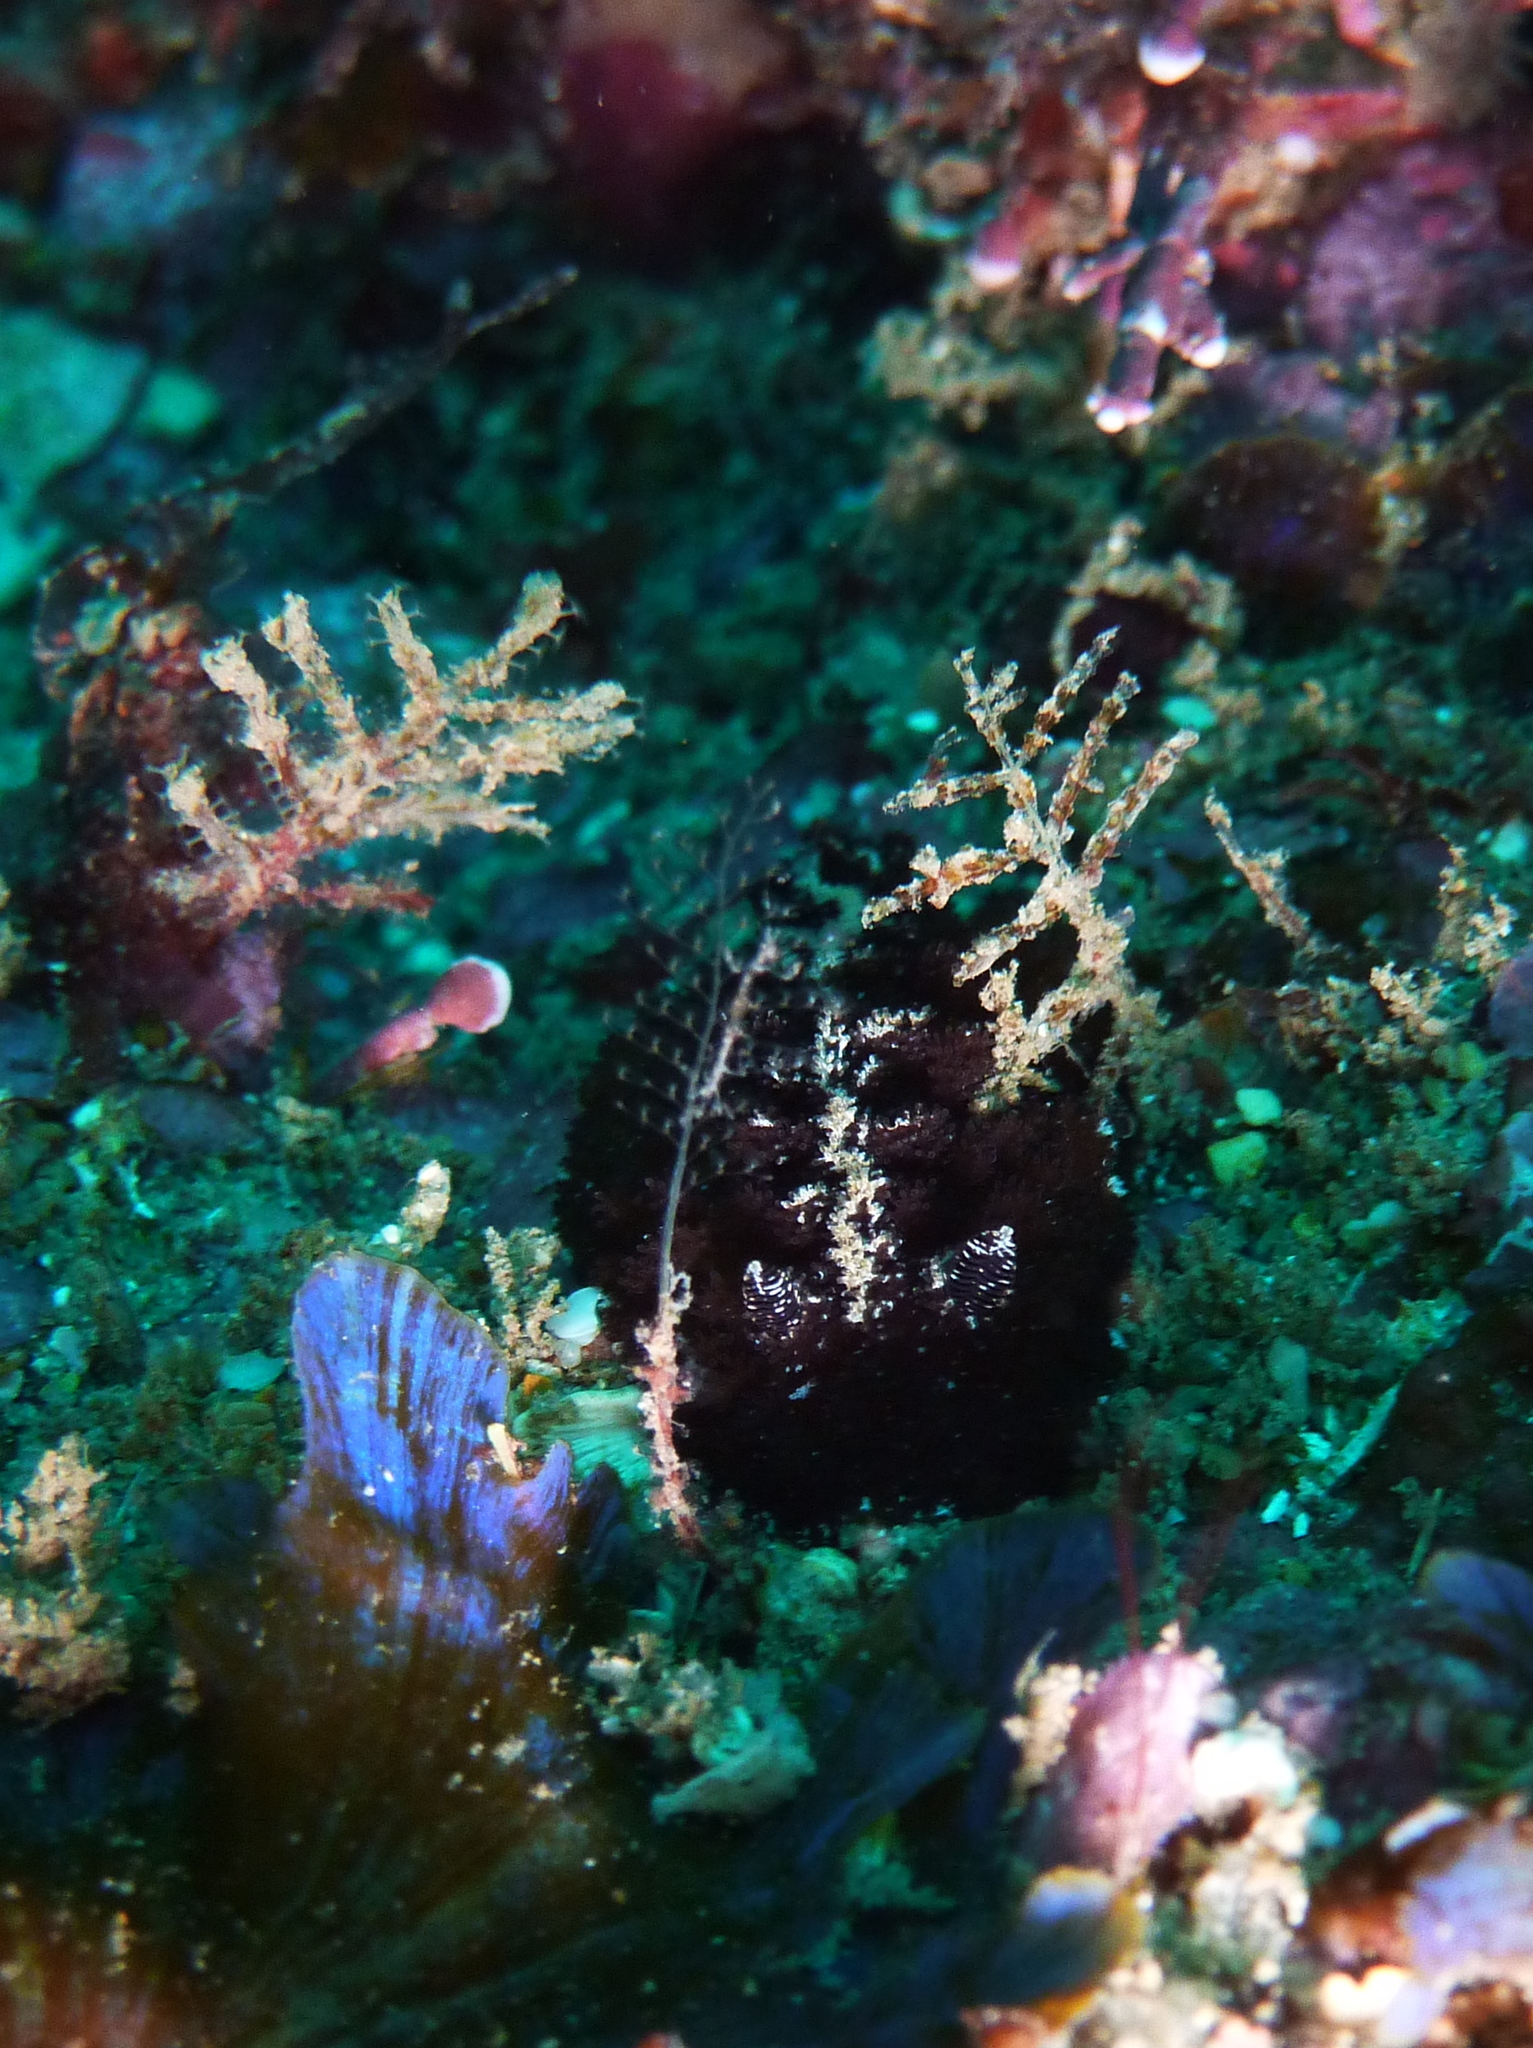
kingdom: Animalia
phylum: Mollusca
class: Gastropoda
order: Nudibranchia
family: Discodorididae
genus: Atagema
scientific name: Atagema intecta
